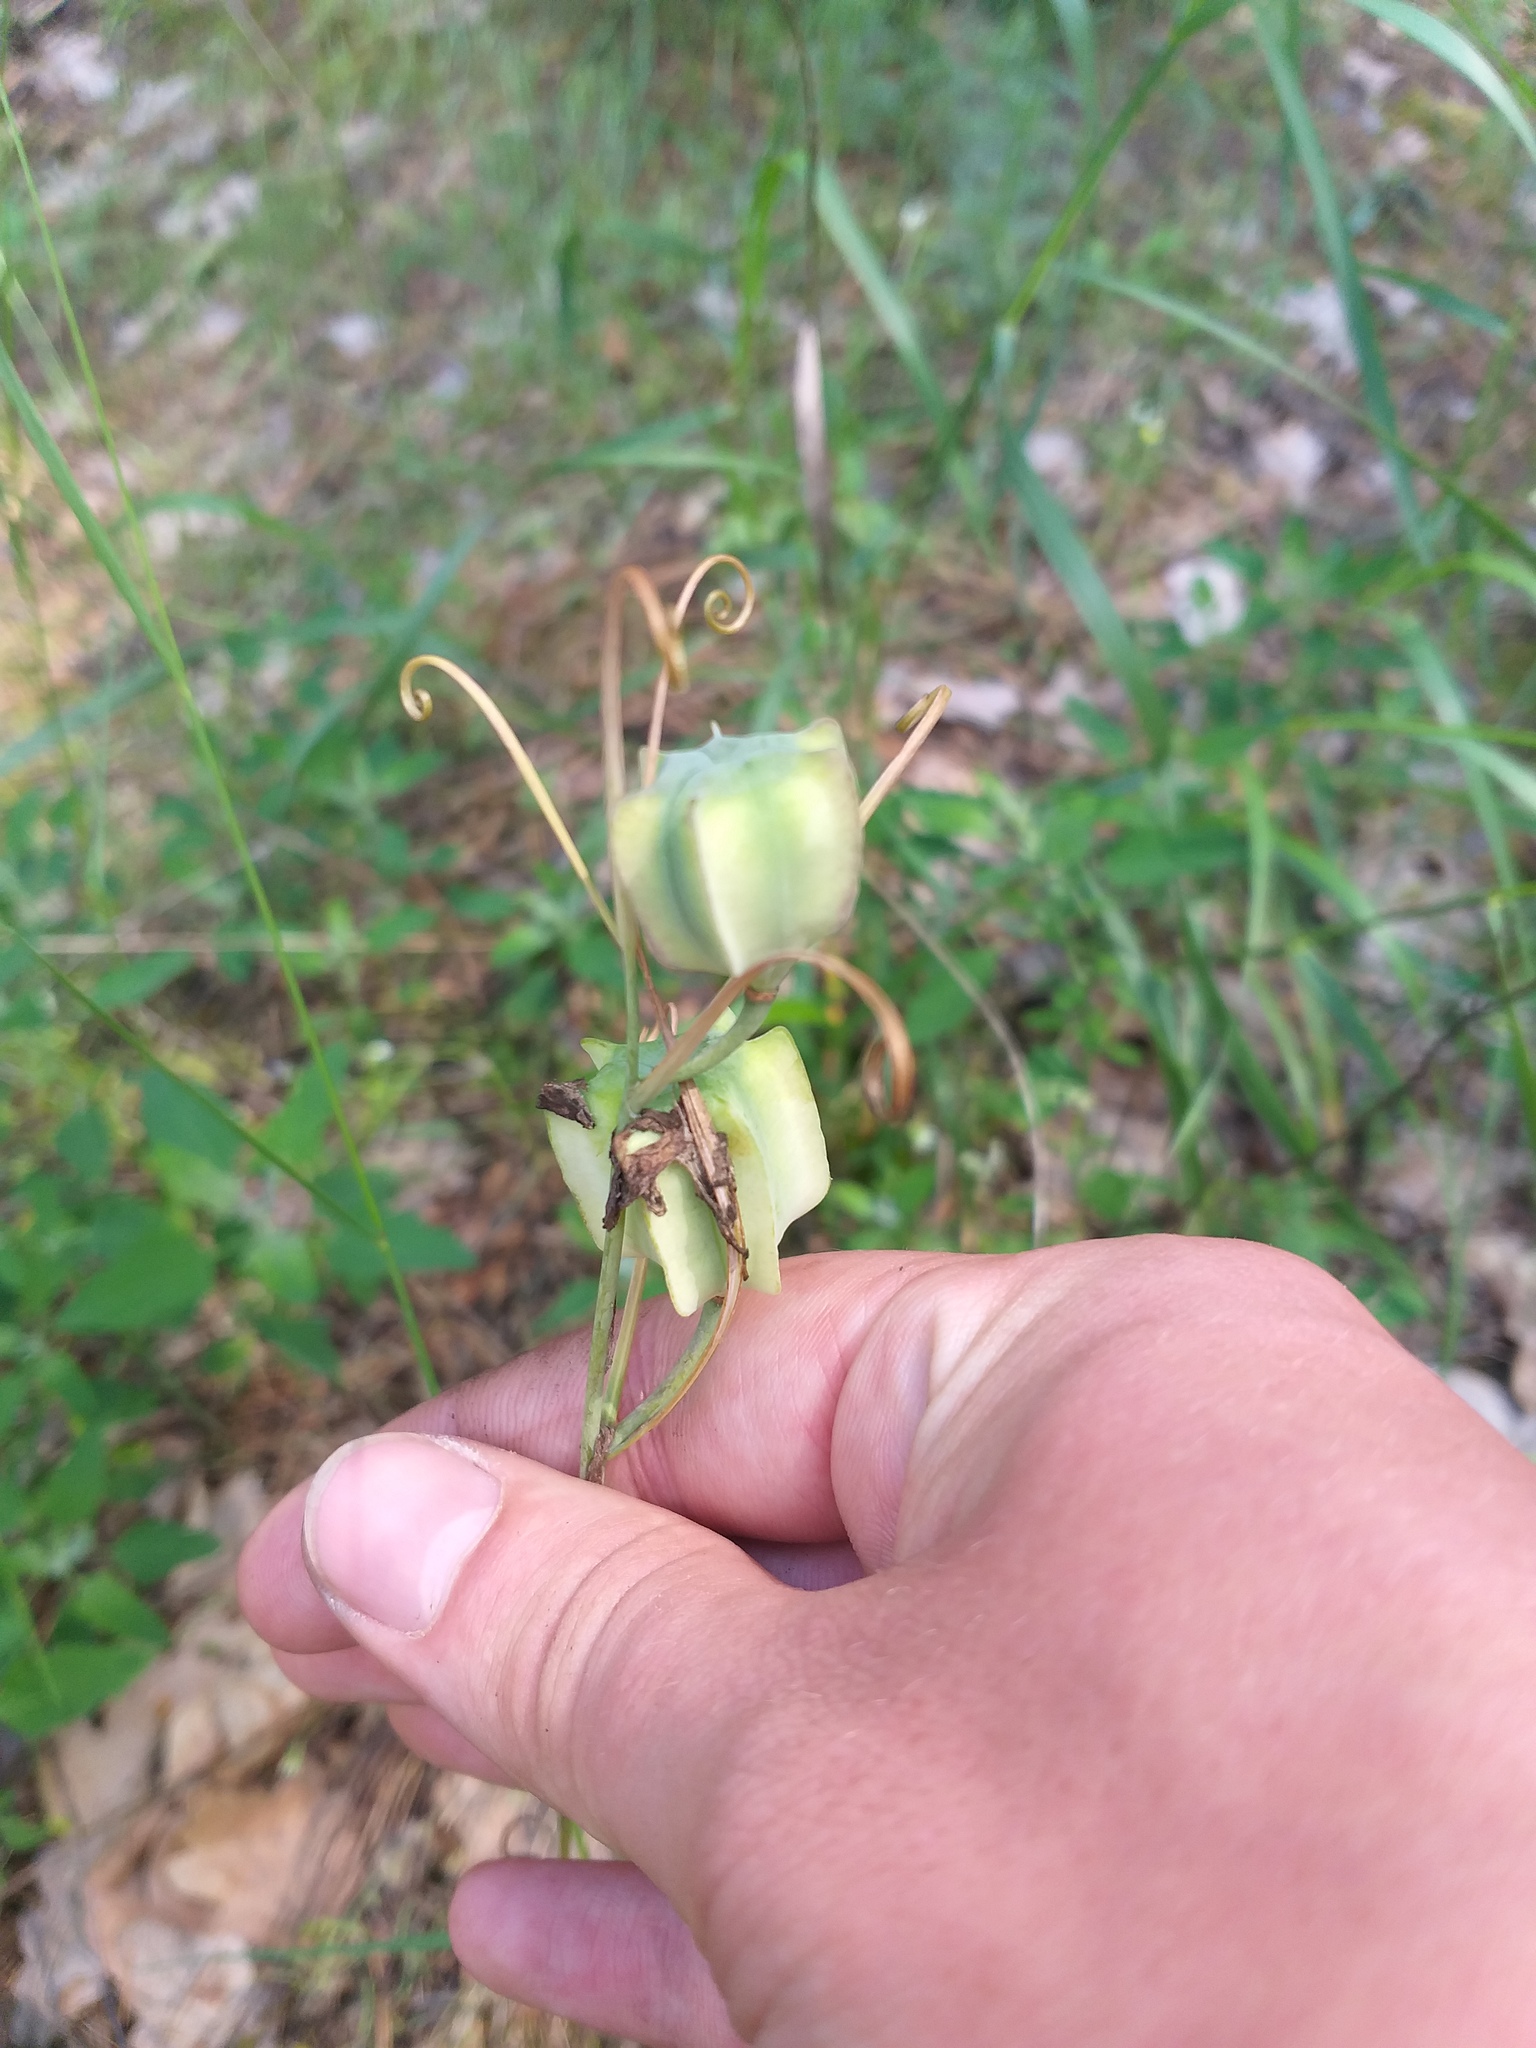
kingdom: Plantae
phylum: Tracheophyta
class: Liliopsida
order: Liliales
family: Liliaceae
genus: Fritillaria
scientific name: Fritillaria ruthenica
